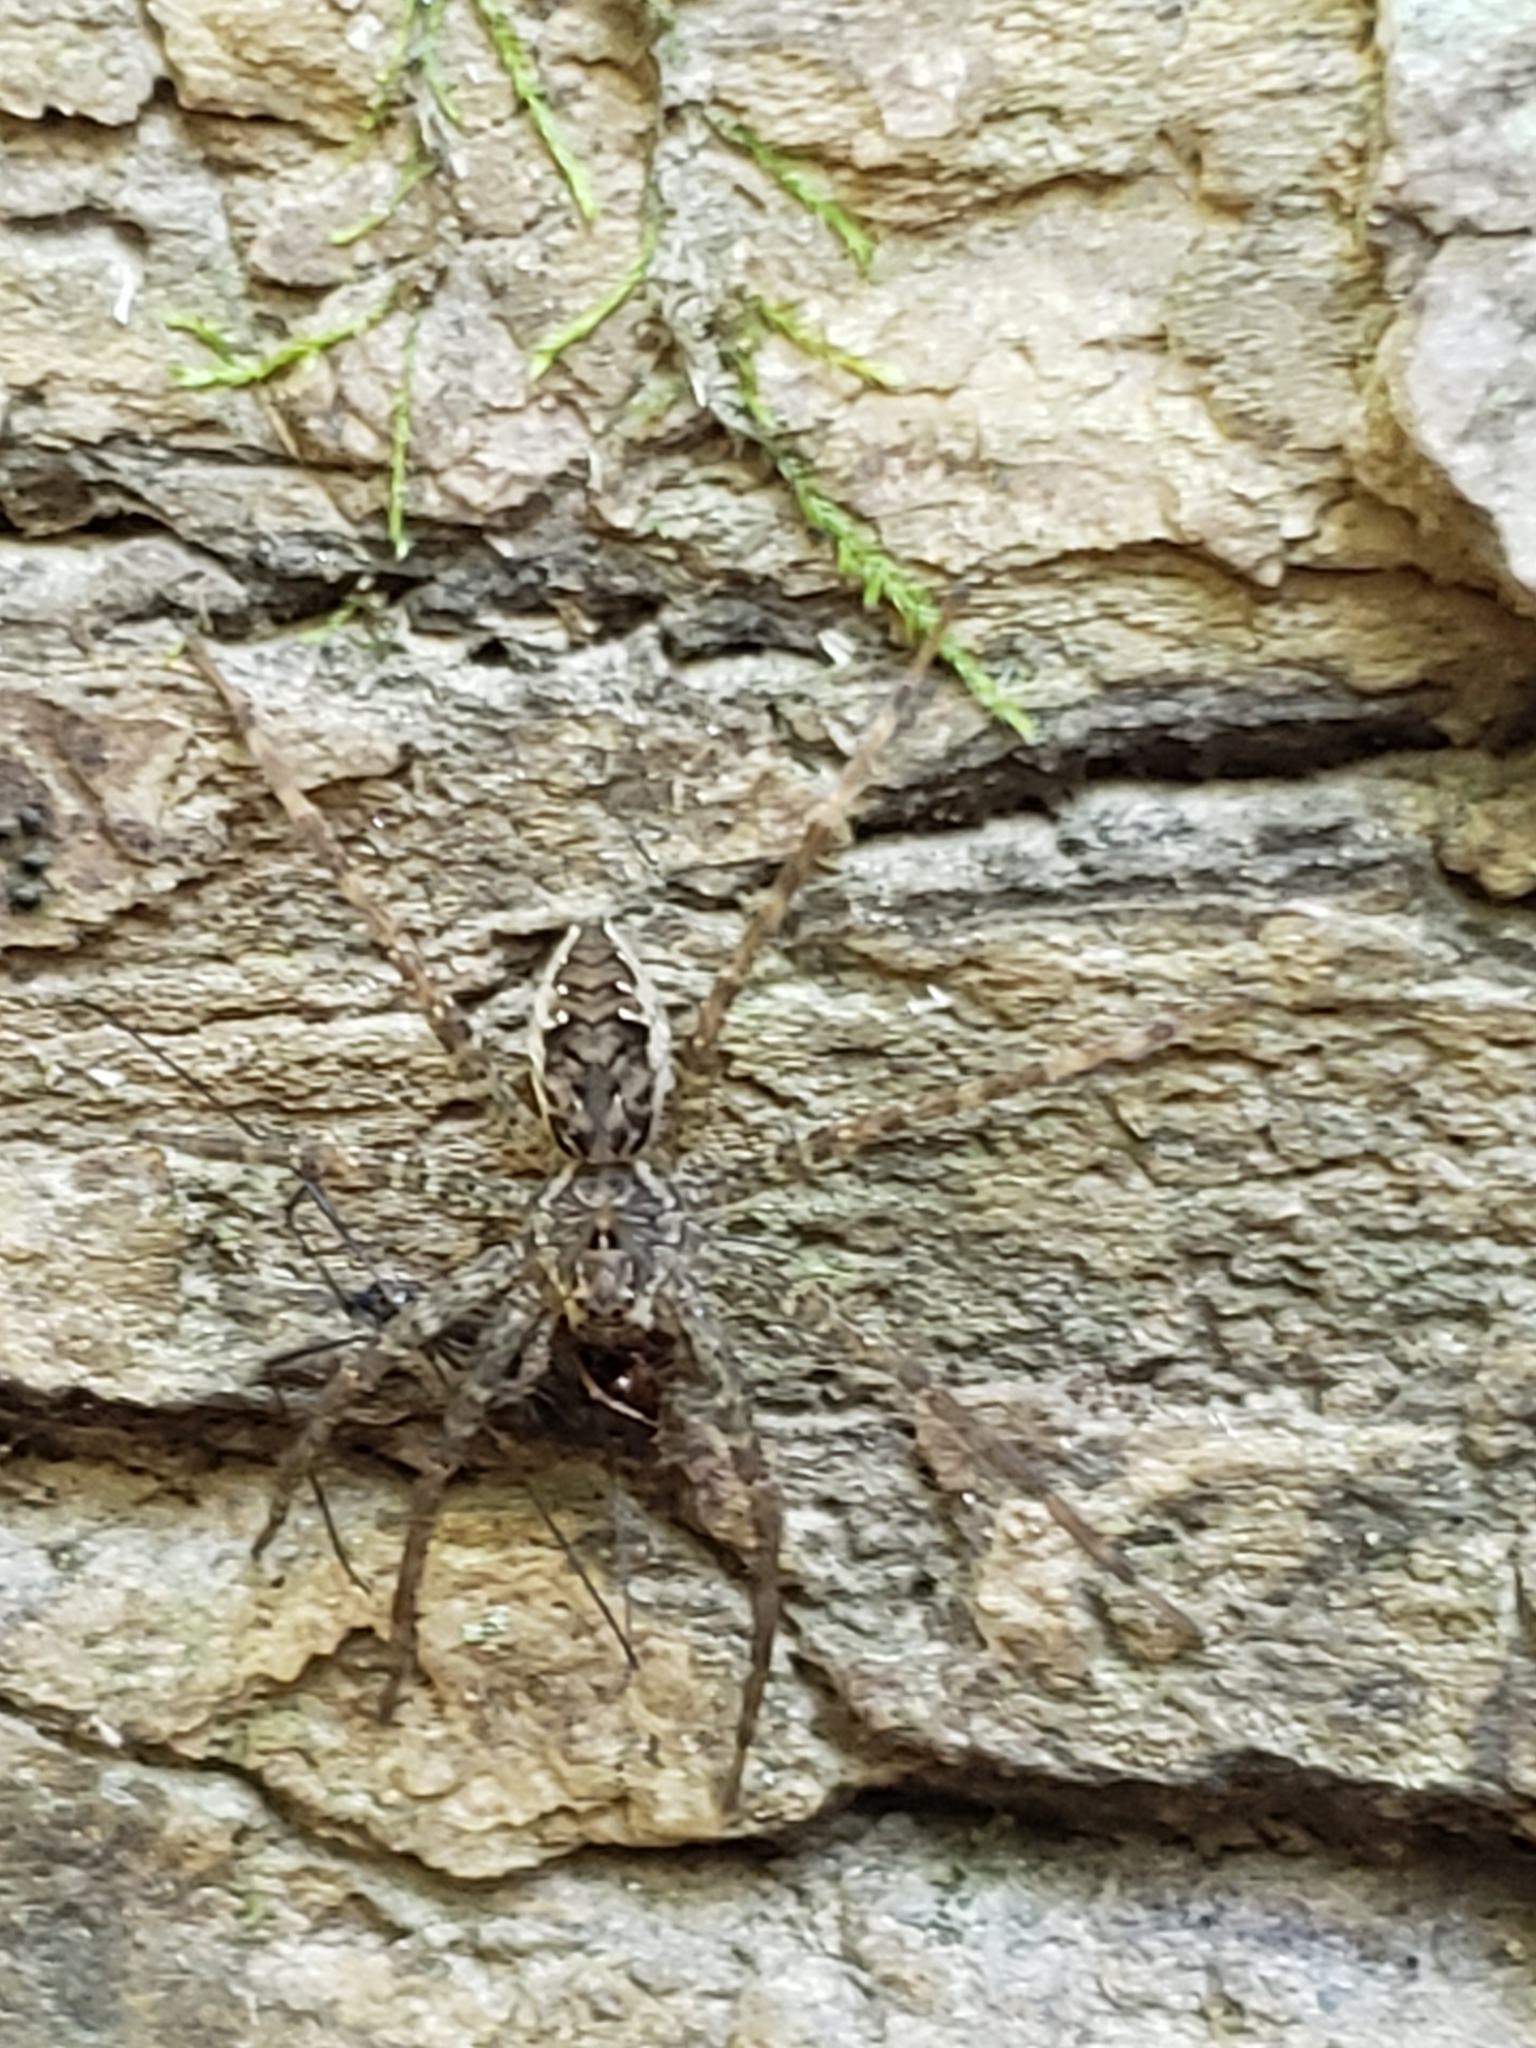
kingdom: Animalia
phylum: Arthropoda
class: Arachnida
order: Araneae
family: Pisauridae
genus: Dolomedes
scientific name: Dolomedes vittatus
